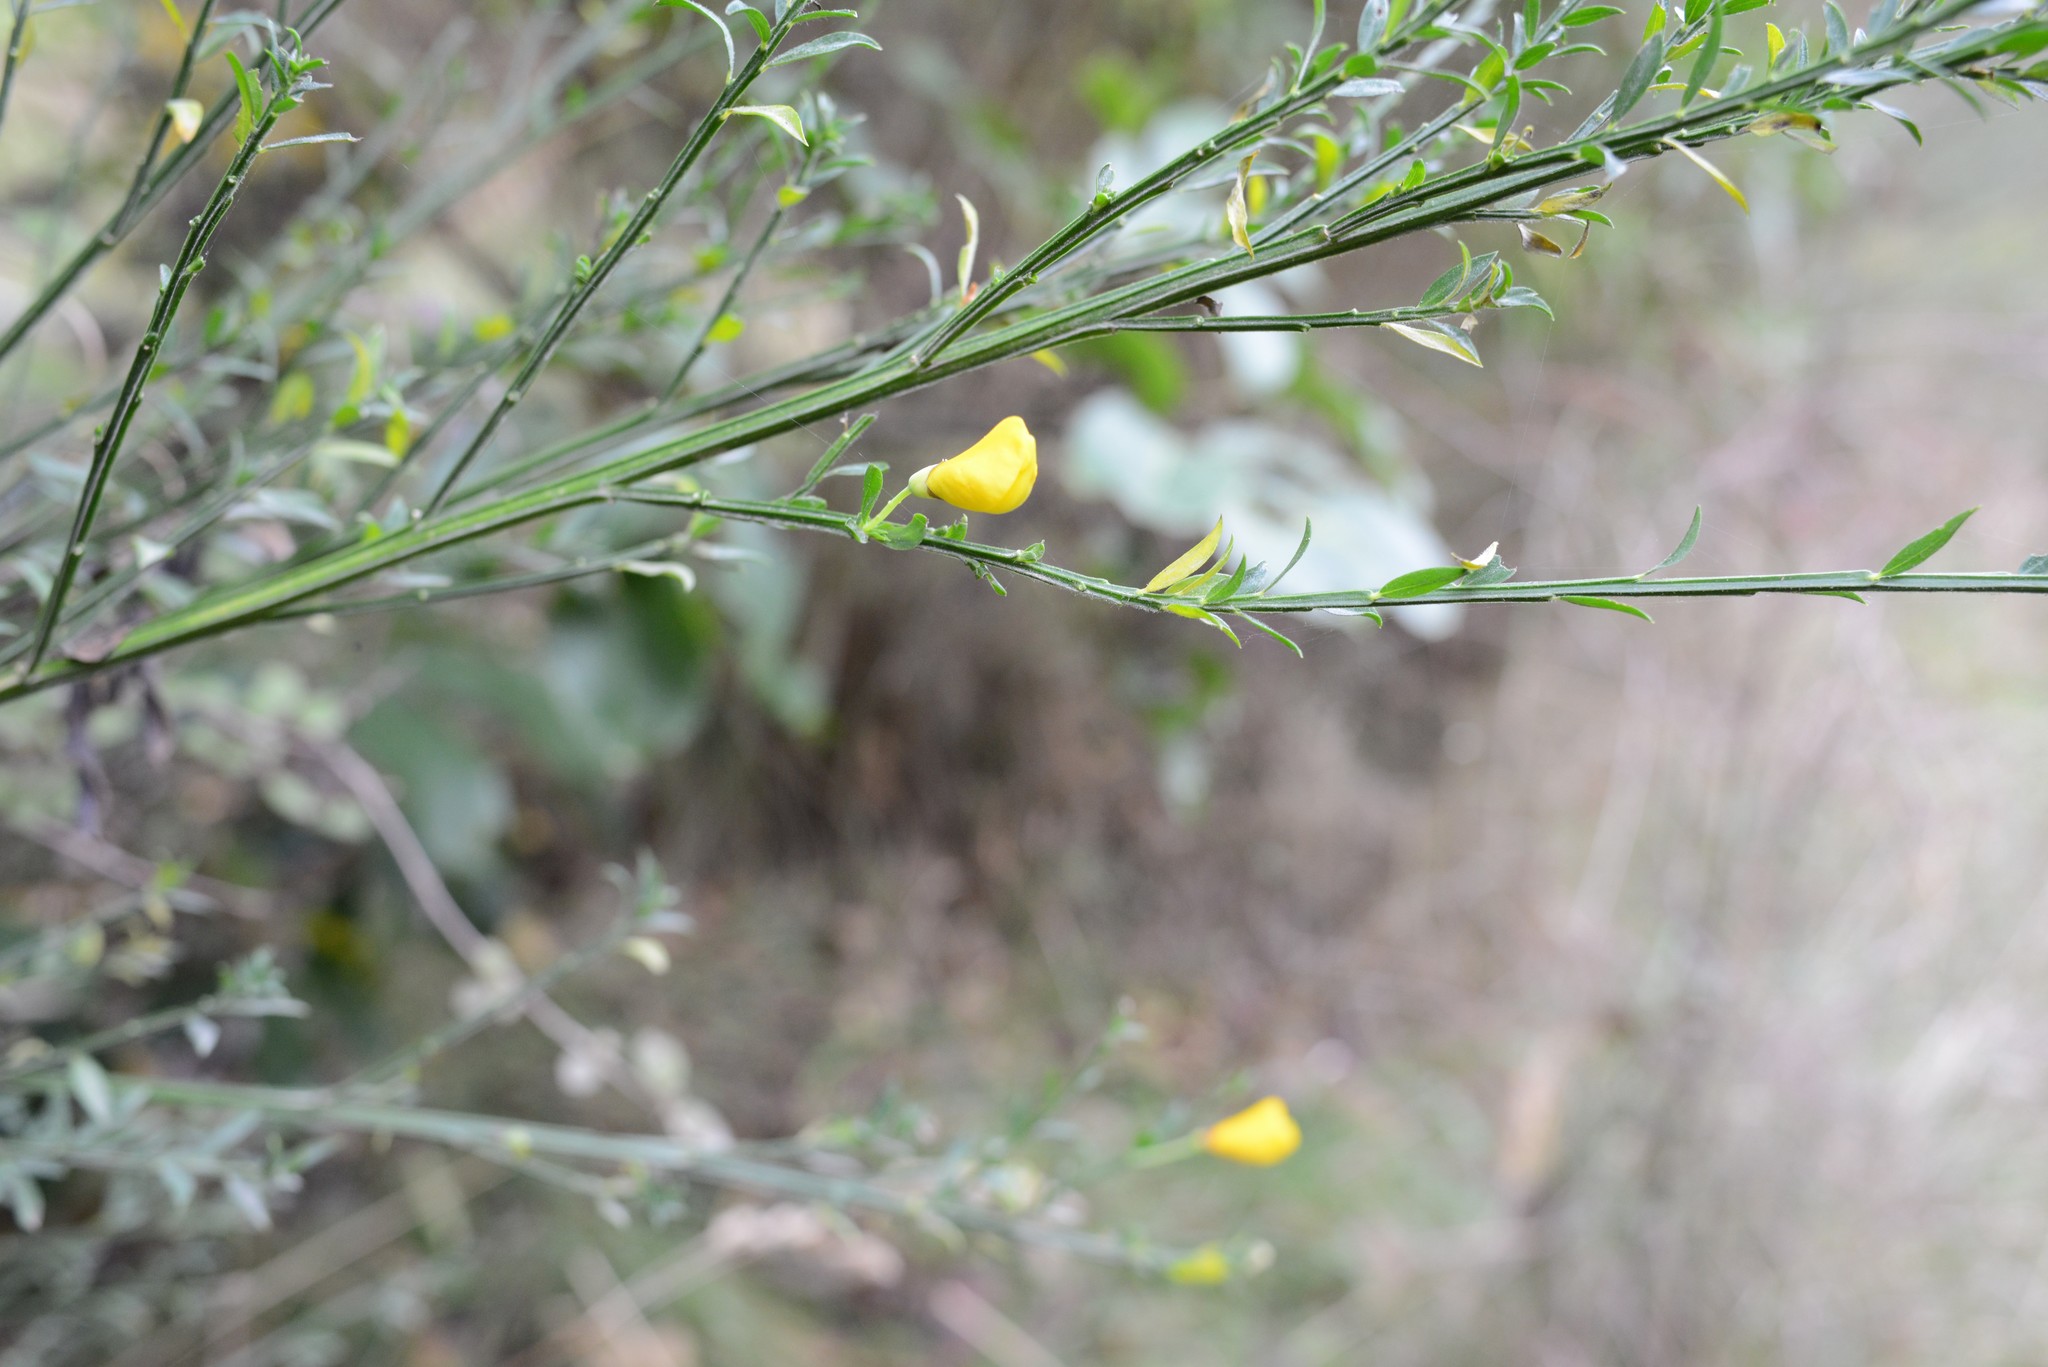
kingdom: Plantae
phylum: Tracheophyta
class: Magnoliopsida
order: Fabales
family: Fabaceae
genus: Cytisus
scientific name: Cytisus scoparius
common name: Scotch broom
